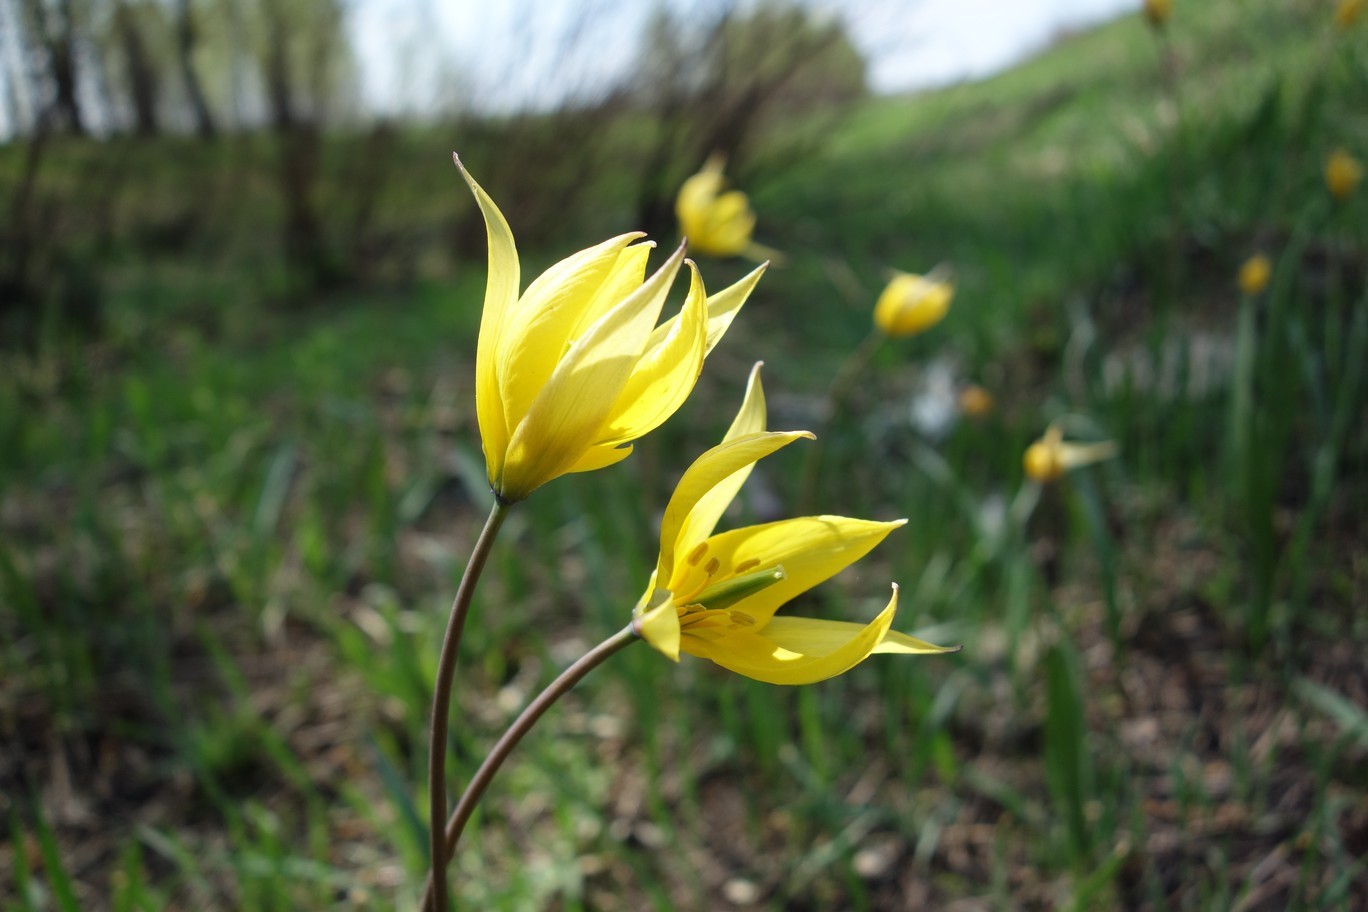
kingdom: Plantae
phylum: Tracheophyta
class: Liliopsida
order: Liliales
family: Liliaceae
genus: Tulipa
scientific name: Tulipa sylvestris
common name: Wild tulip
